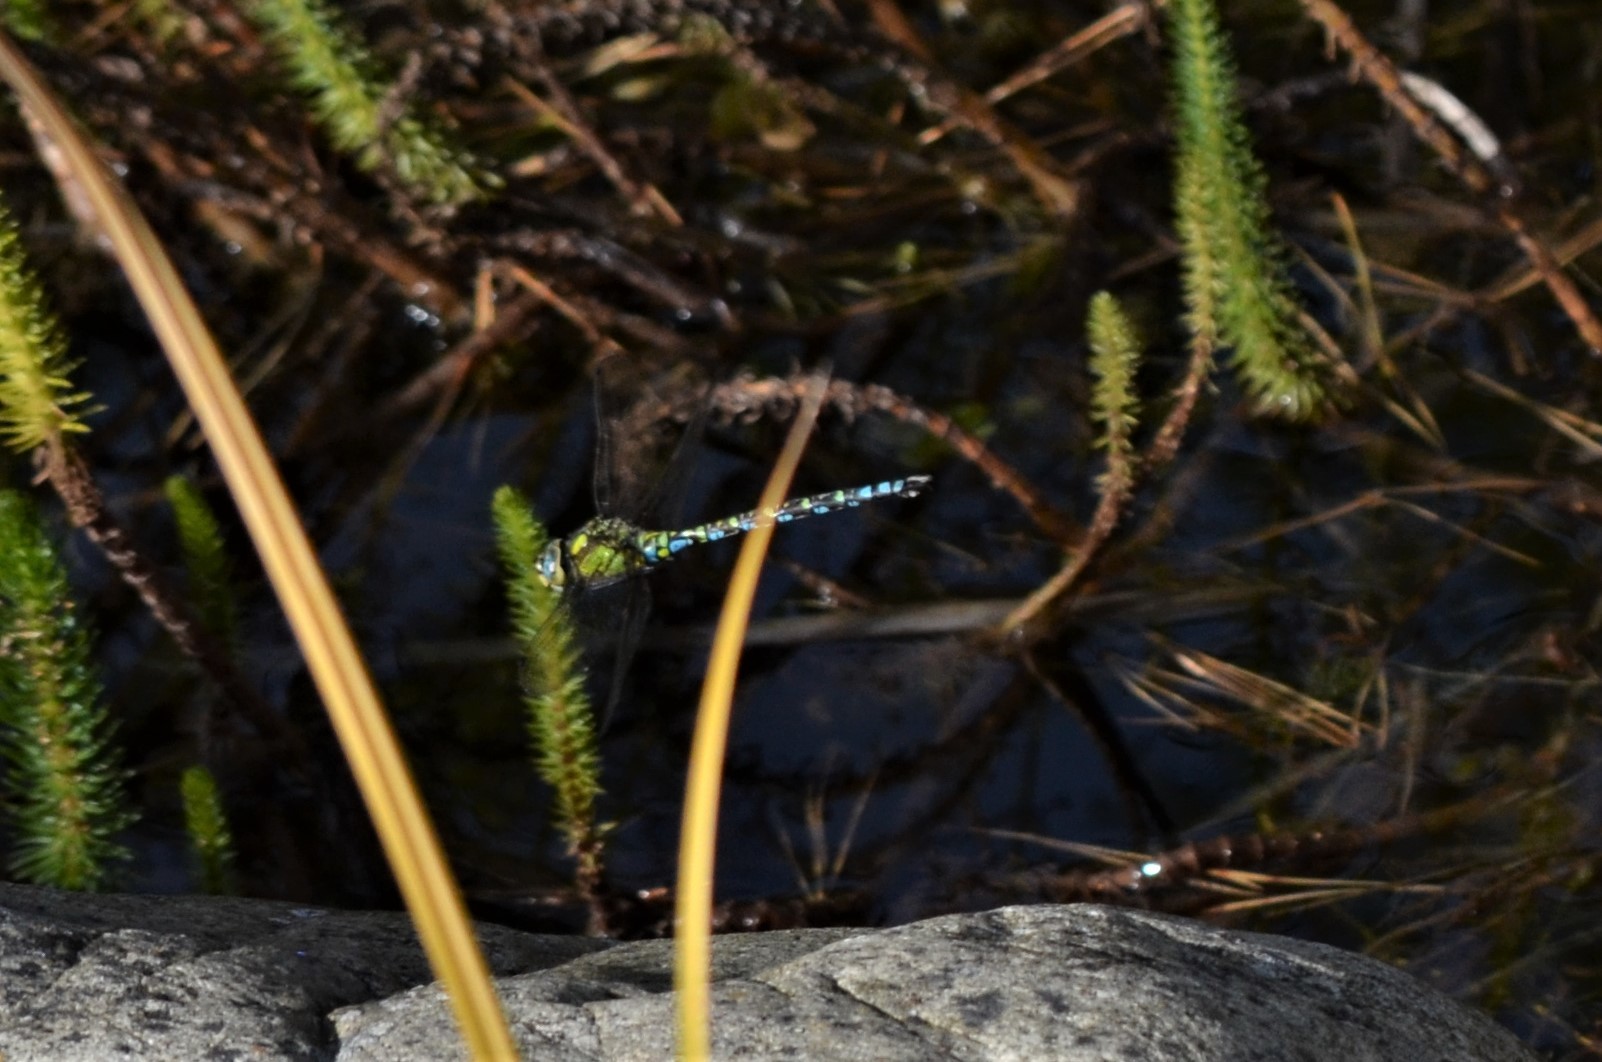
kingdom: Animalia
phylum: Arthropoda
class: Insecta
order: Odonata
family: Aeshnidae
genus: Aeshna
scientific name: Aeshna cyanea
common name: Southern hawker
